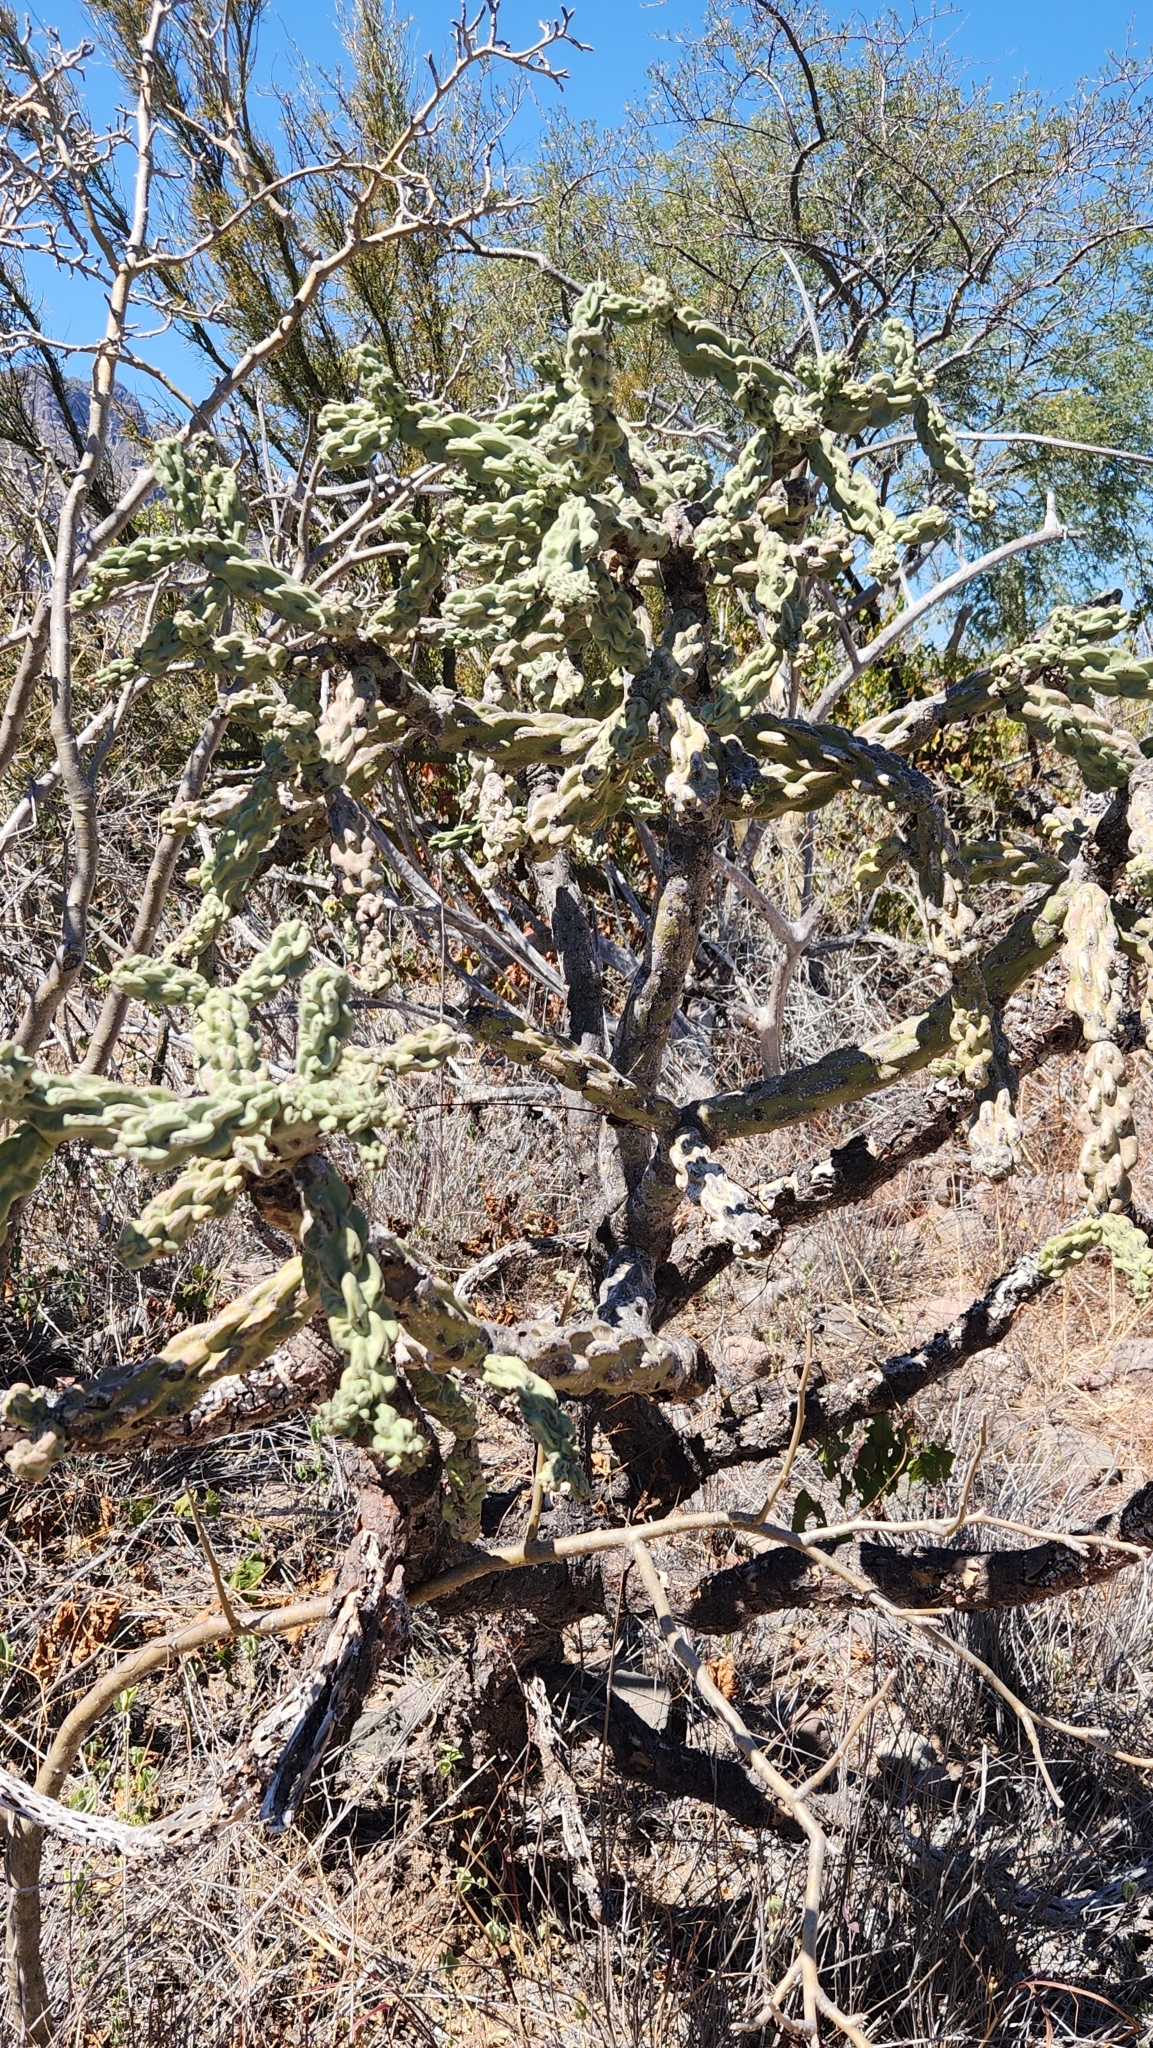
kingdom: Plantae
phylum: Tracheophyta
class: Magnoliopsida
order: Caryophyllales
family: Cactaceae
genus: Cylindropuntia
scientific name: Cylindropuntia cholla
